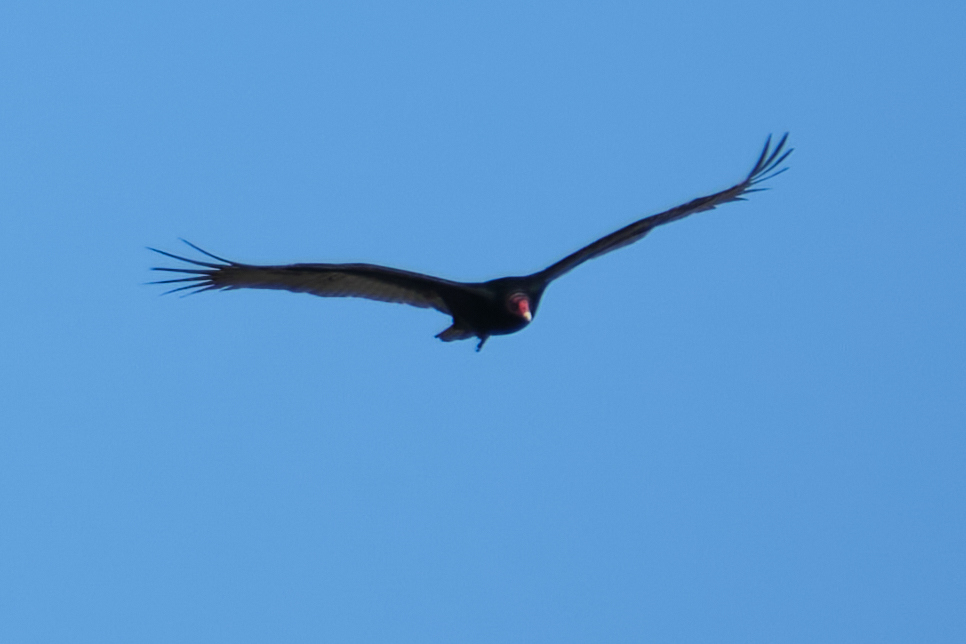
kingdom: Animalia
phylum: Chordata
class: Aves
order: Accipitriformes
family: Cathartidae
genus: Cathartes
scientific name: Cathartes aura
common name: Turkey vulture
